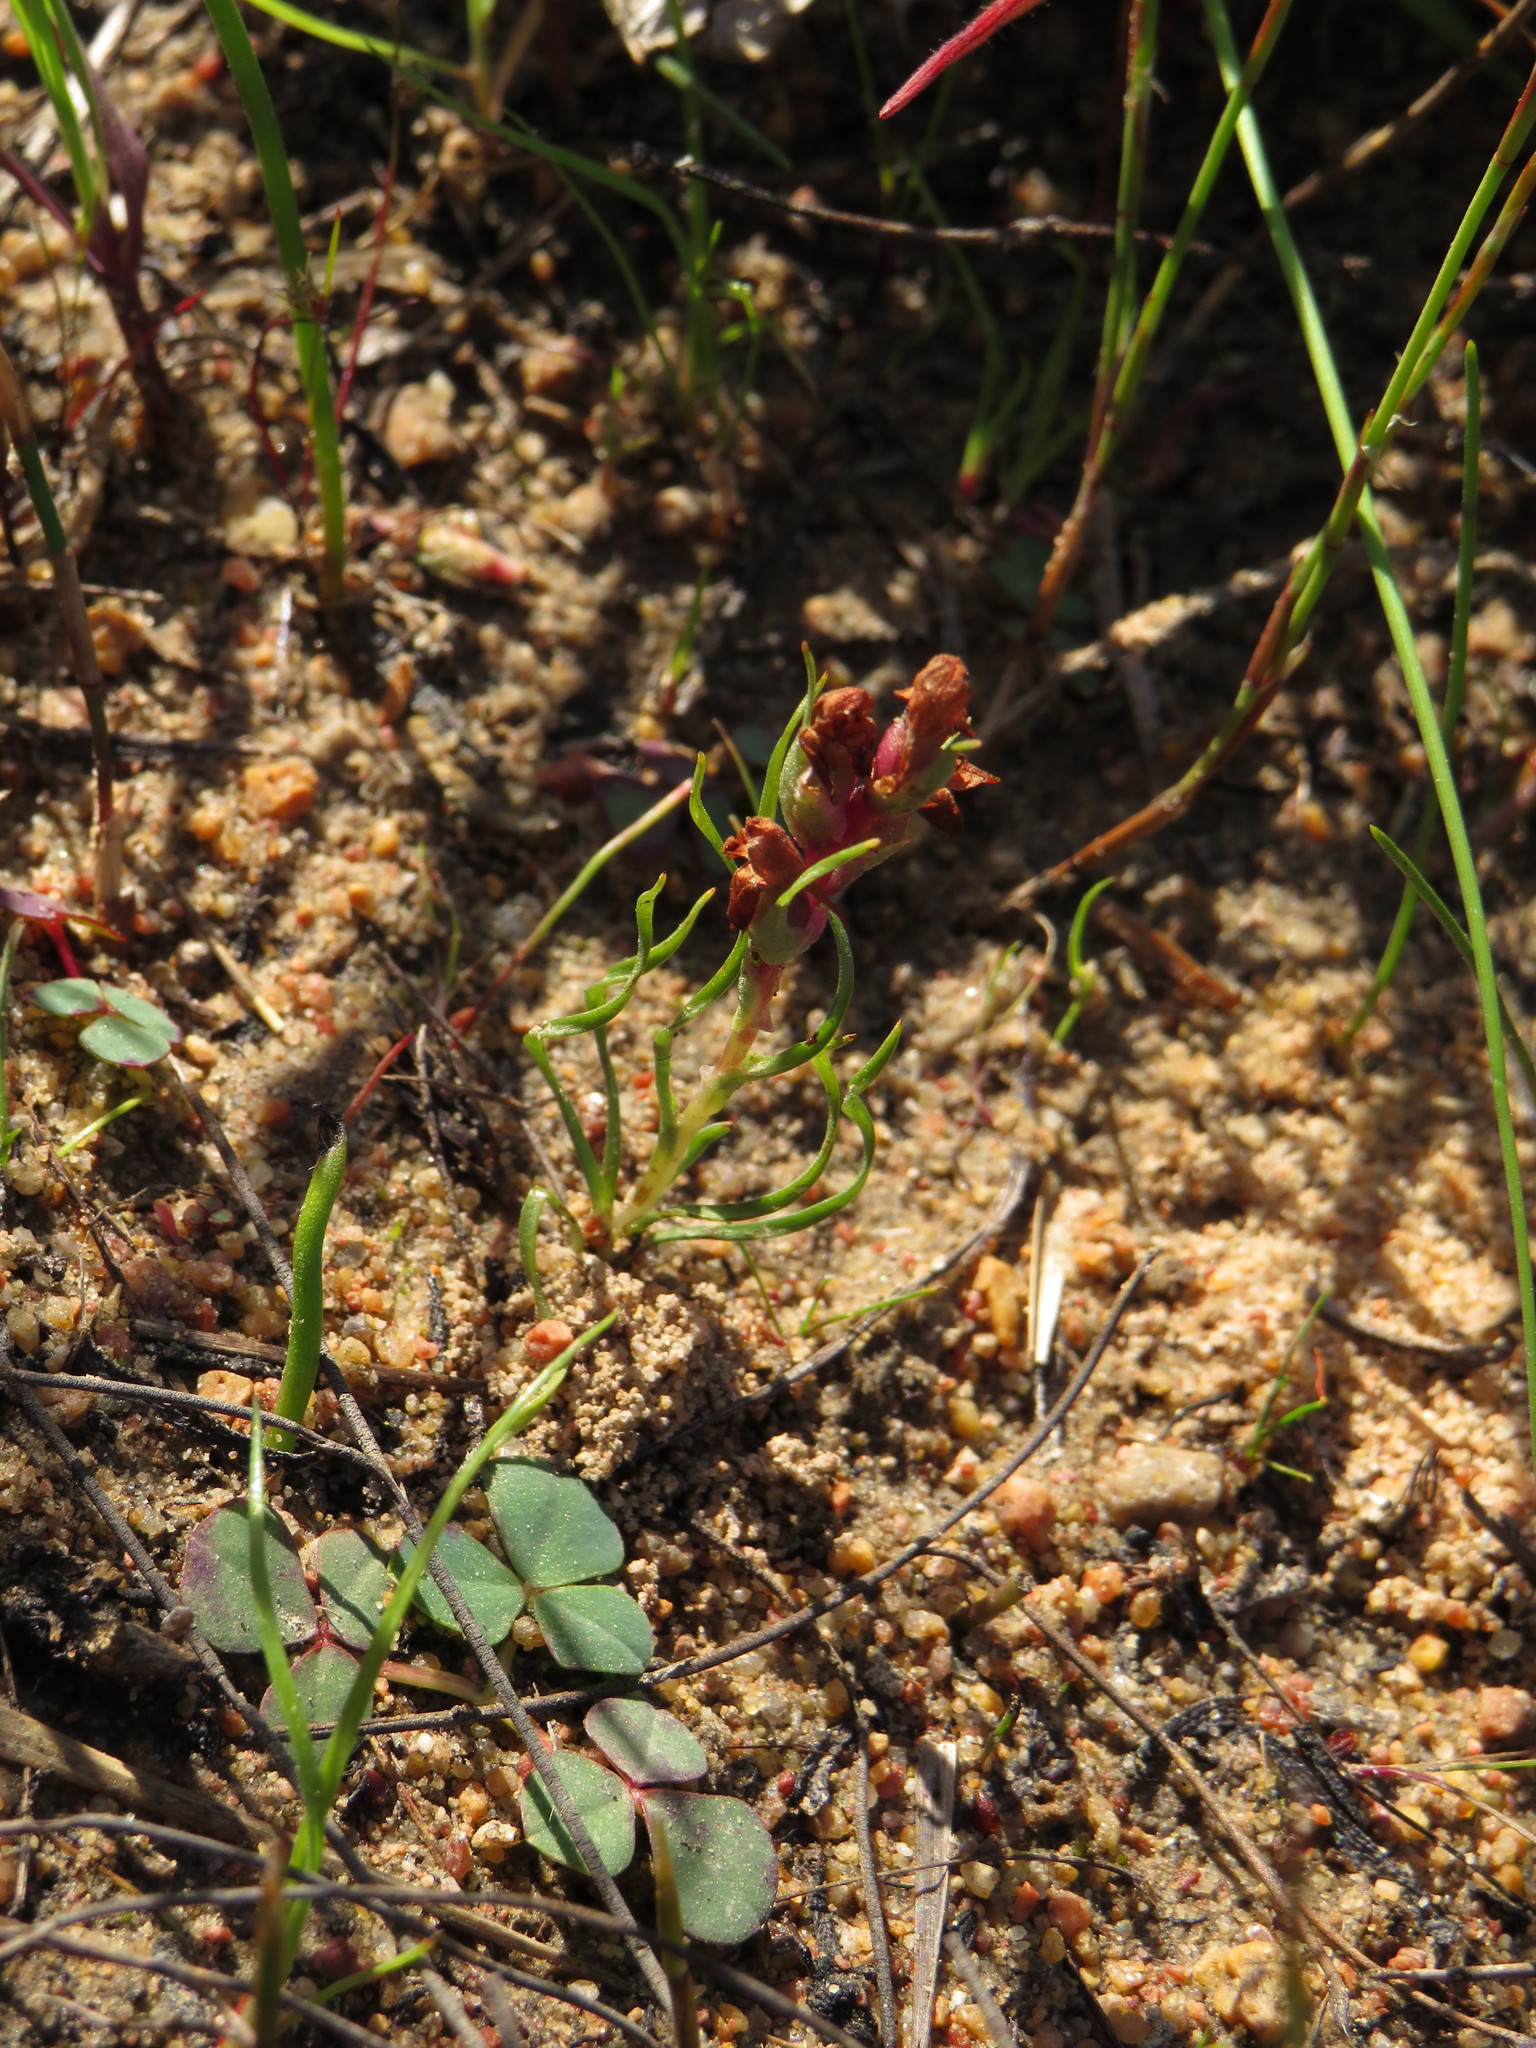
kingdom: Plantae
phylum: Tracheophyta
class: Liliopsida
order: Asparagales
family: Orchidaceae
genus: Disa
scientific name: Disa tenella
